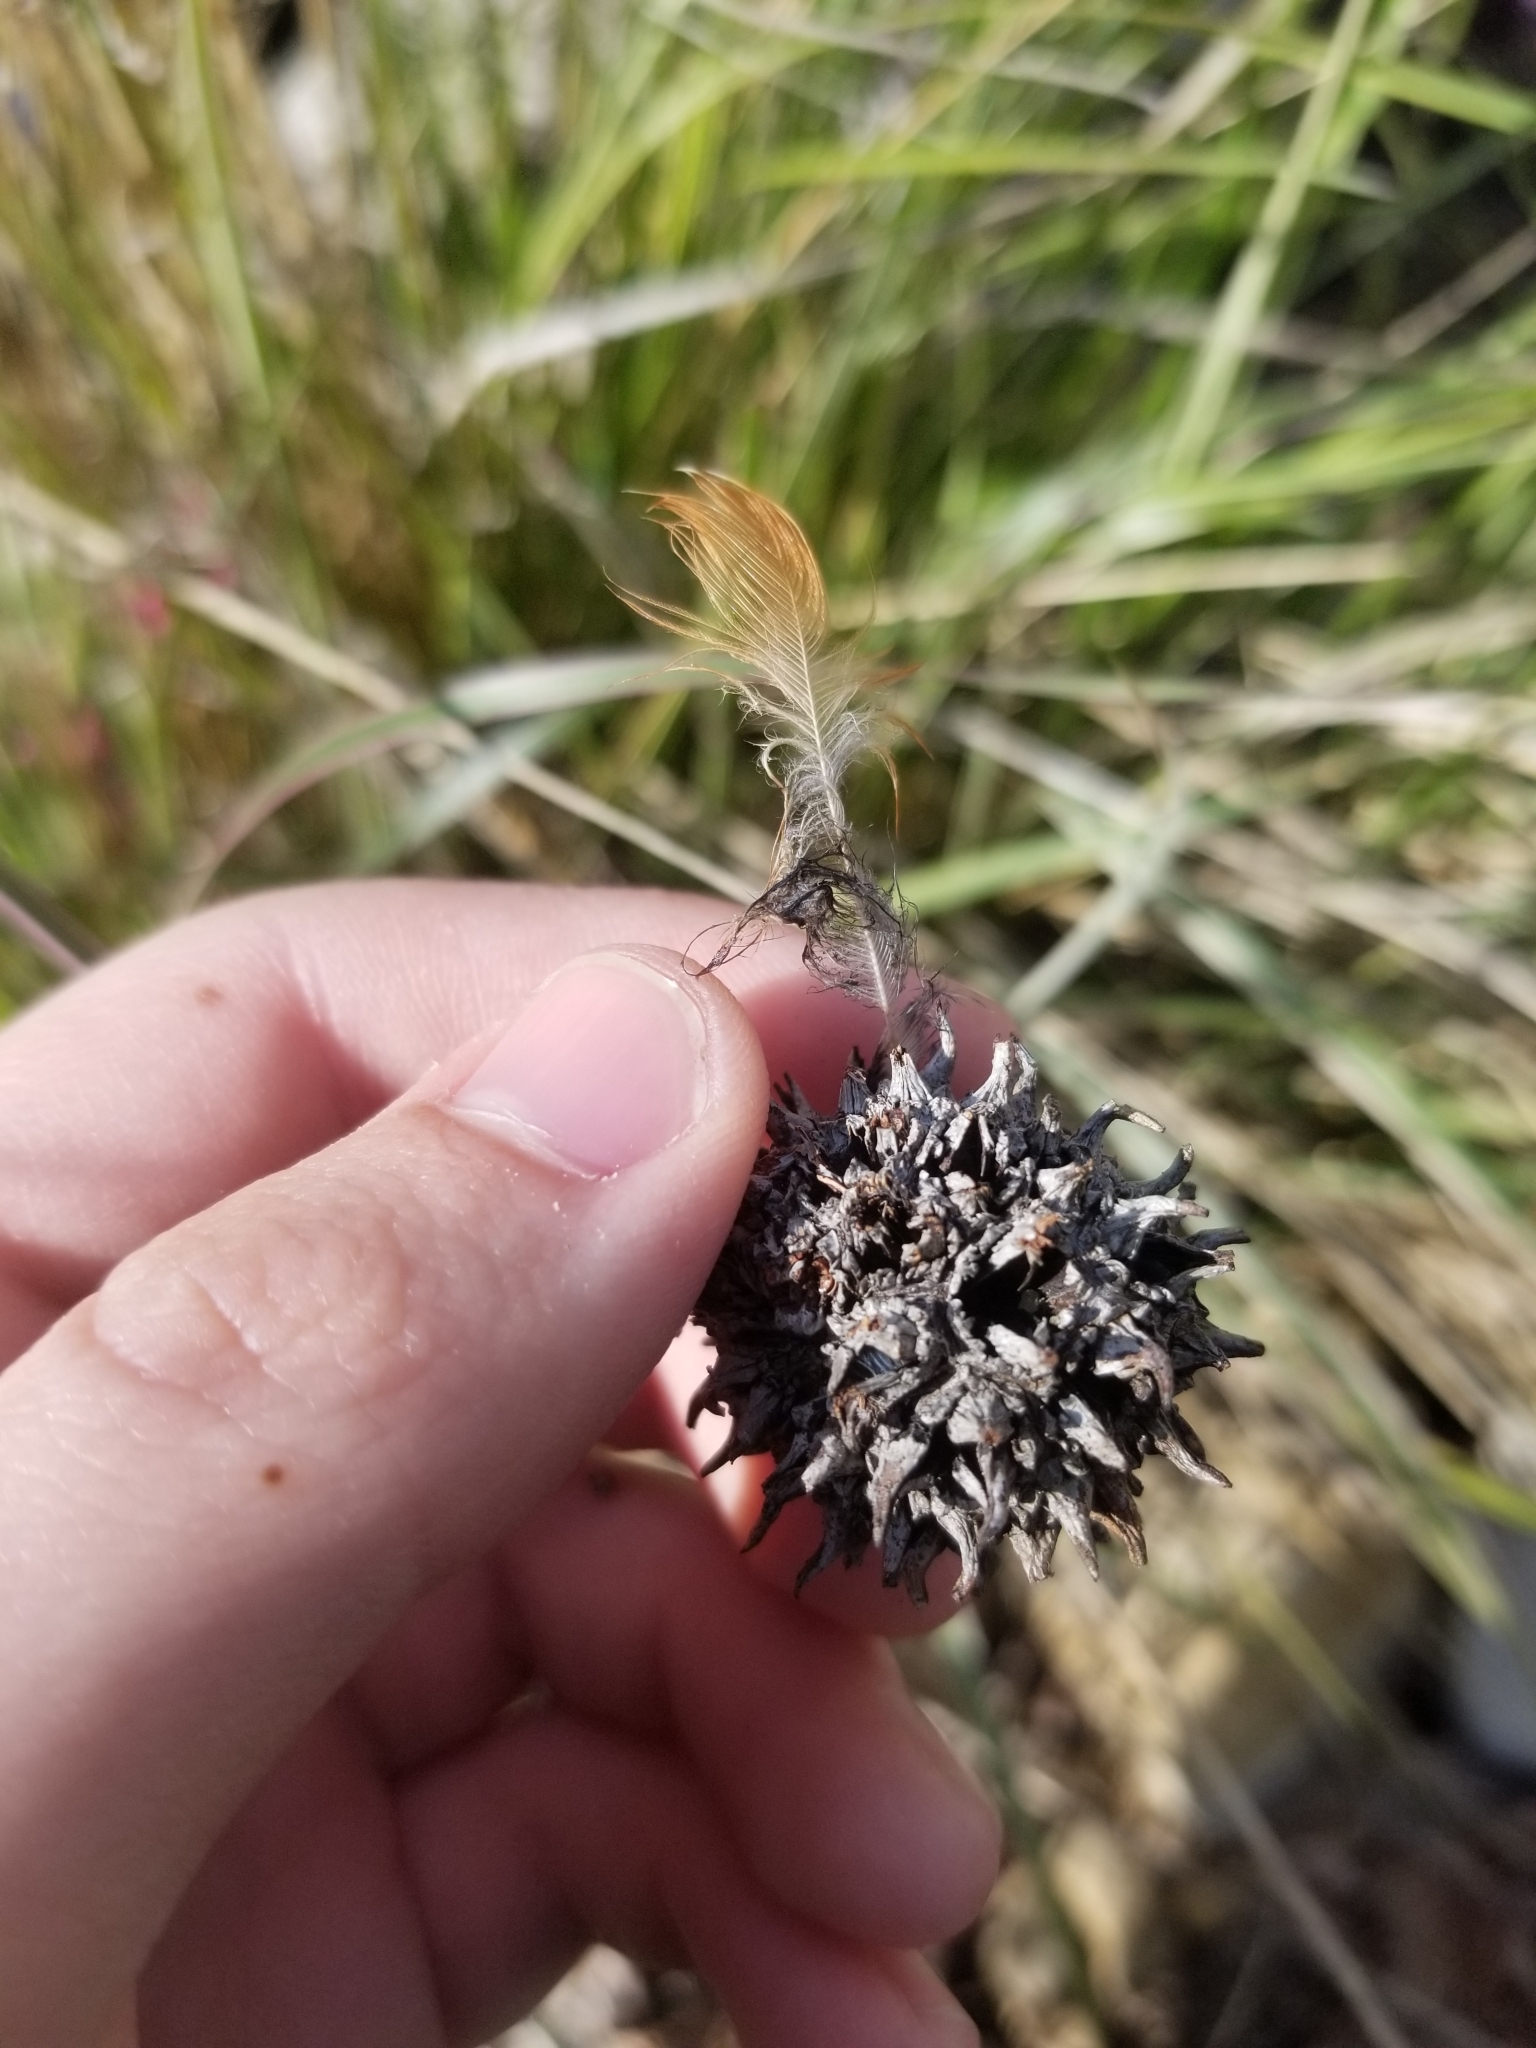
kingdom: Plantae
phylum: Tracheophyta
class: Magnoliopsida
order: Saxifragales
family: Altingiaceae
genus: Liquidambar
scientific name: Liquidambar styraciflua
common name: Sweet gum
